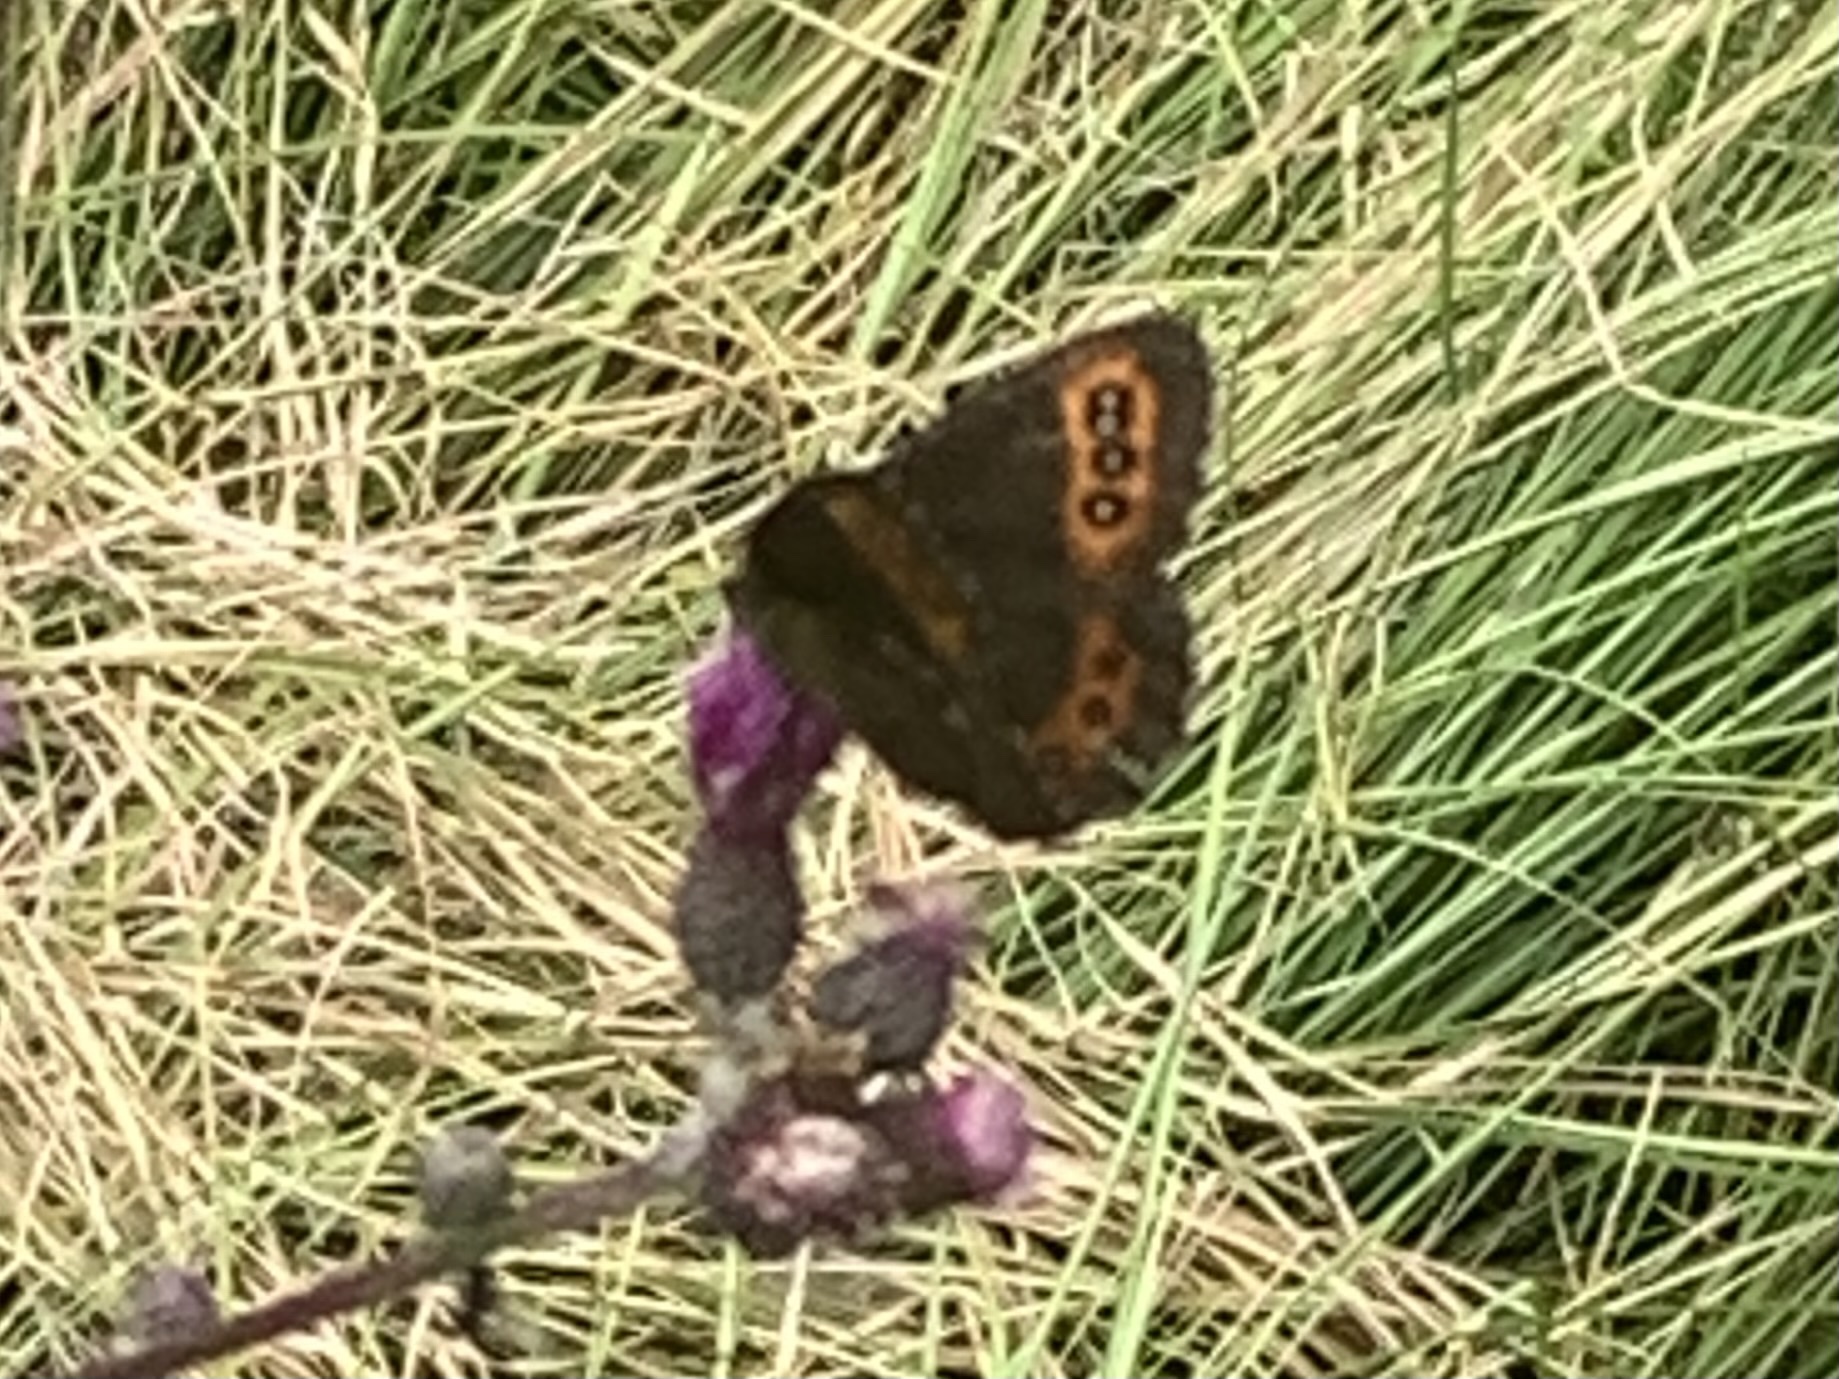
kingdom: Animalia
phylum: Arthropoda
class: Insecta
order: Lepidoptera
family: Nymphalidae
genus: Erebia
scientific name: Erebia ligea
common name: Arran brown
